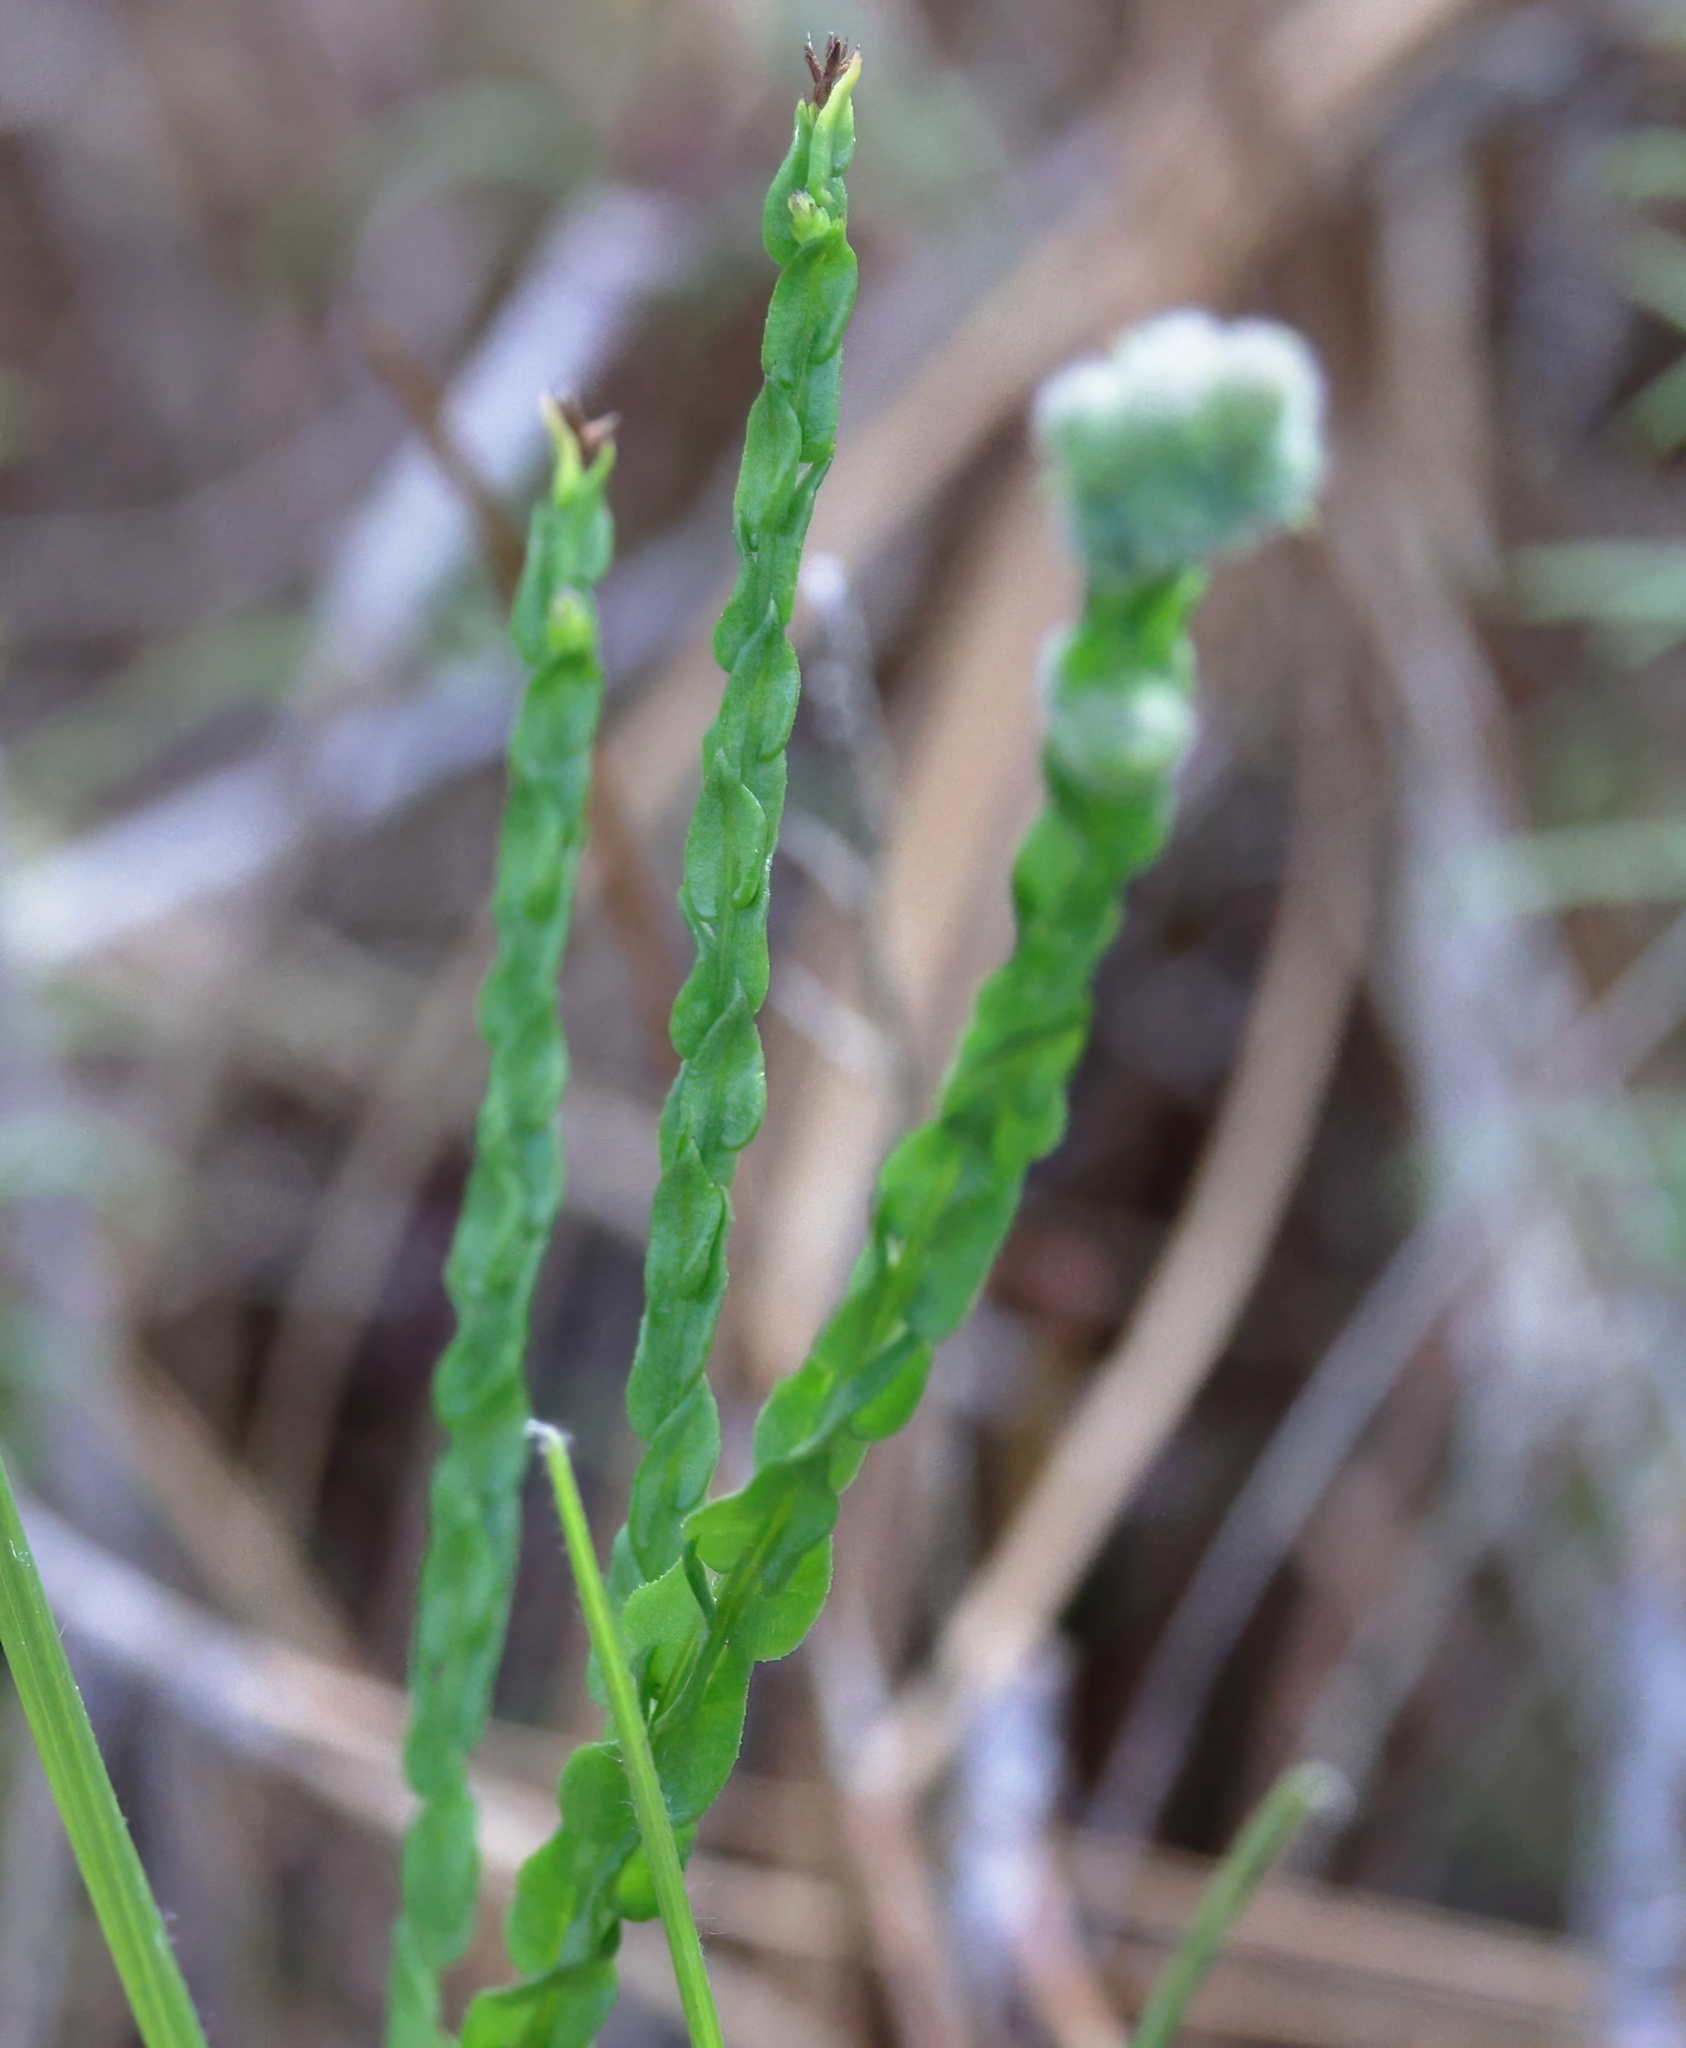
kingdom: Plantae
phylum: Tracheophyta
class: Magnoliopsida
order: Asterales
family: Asteraceae
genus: Symphyotrichum
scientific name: Symphyotrichum adnatum
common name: Scale-leaf aster
